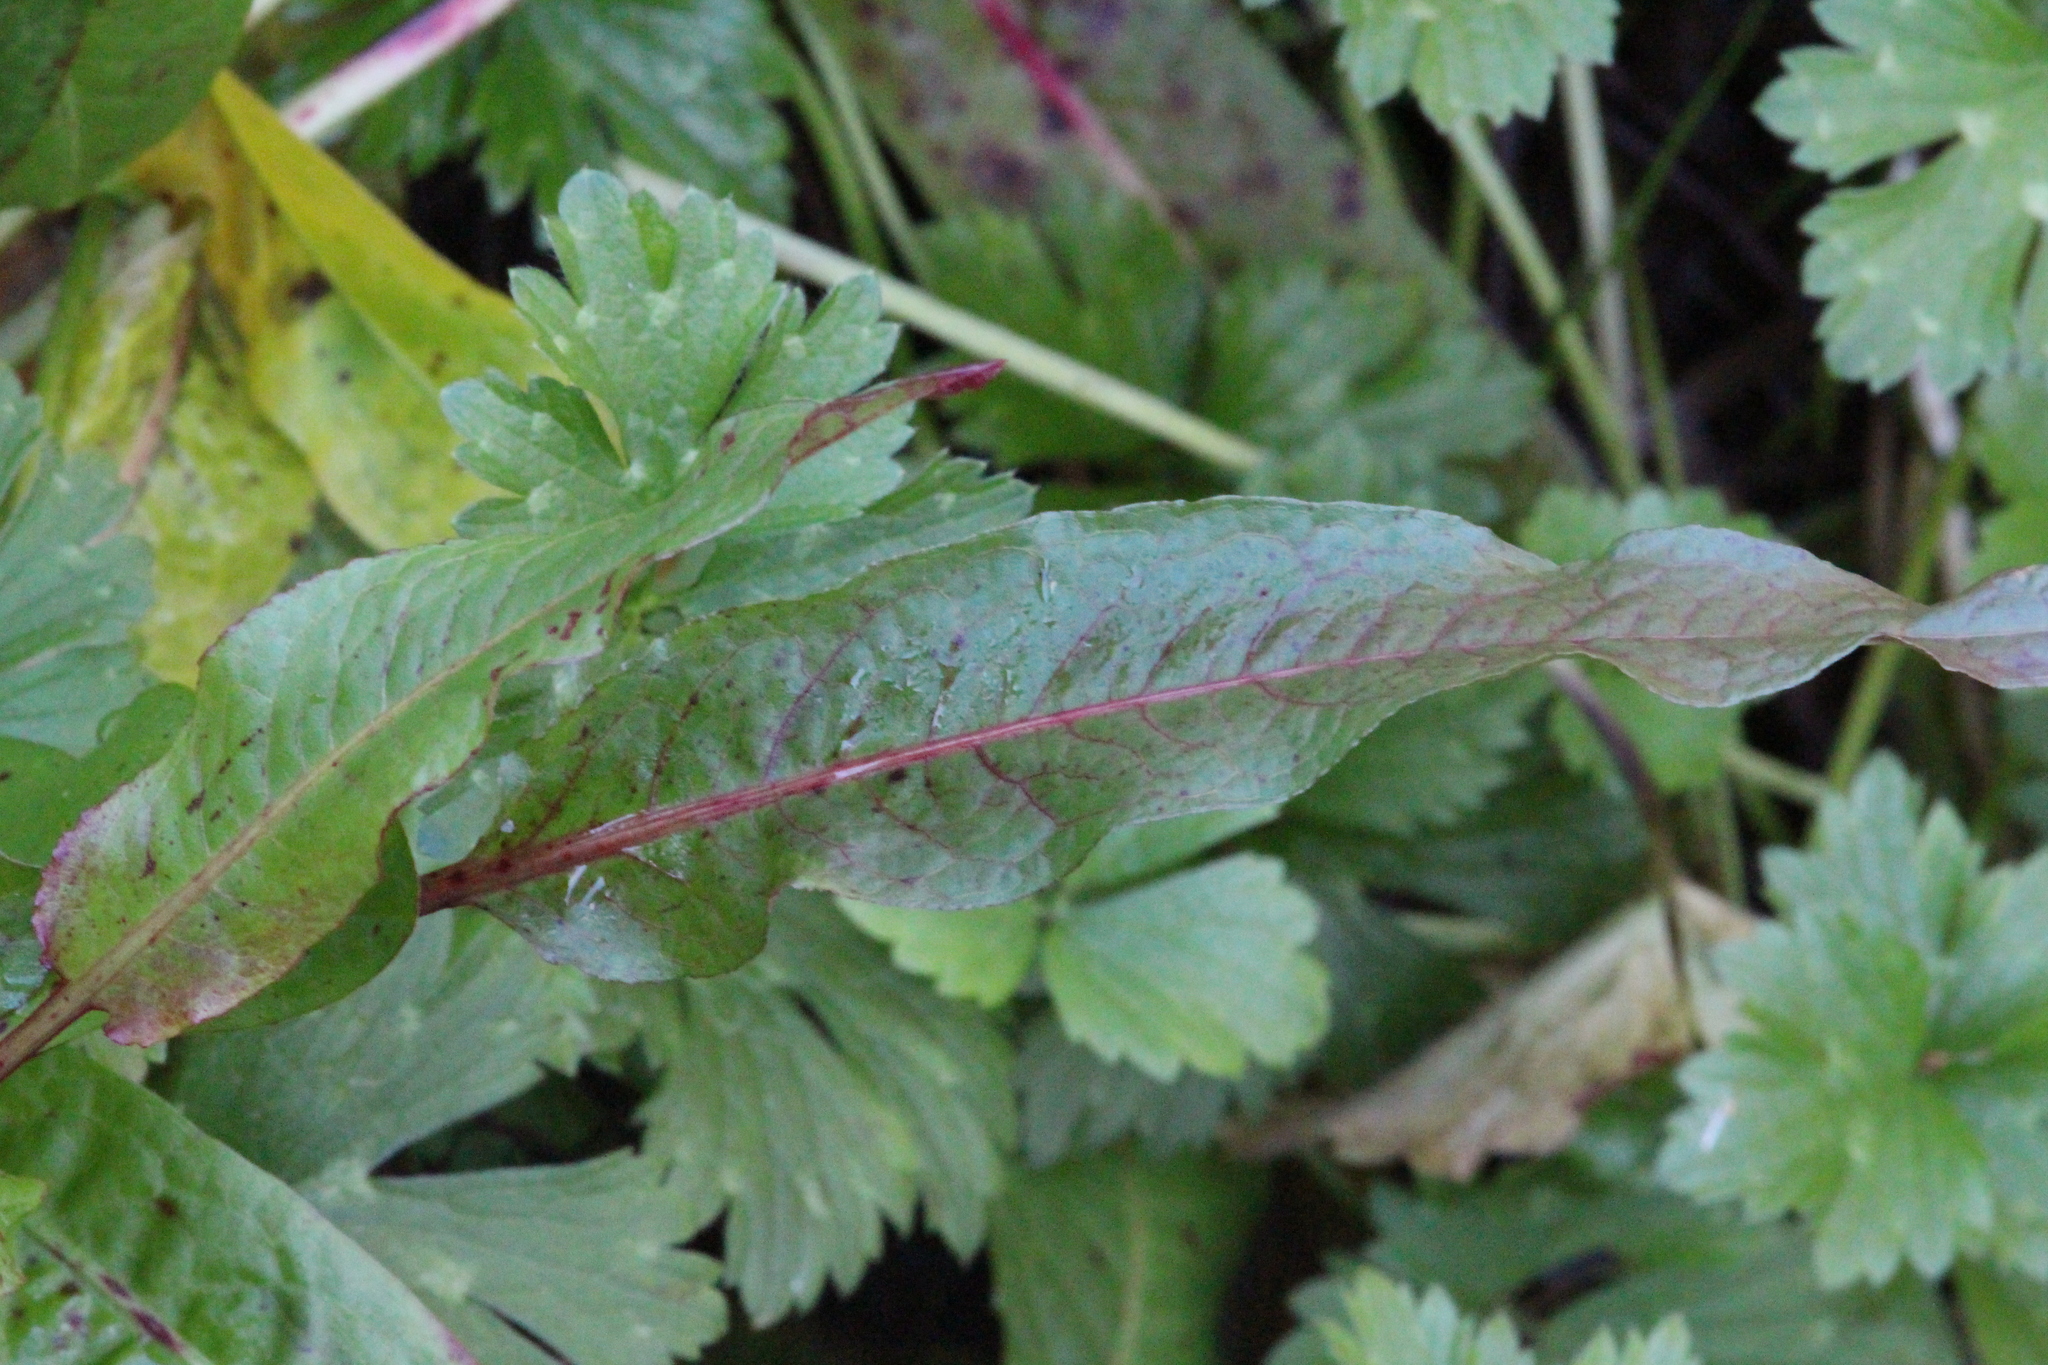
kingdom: Plantae
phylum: Tracheophyta
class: Magnoliopsida
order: Caryophyllales
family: Polygonaceae
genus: Rumex
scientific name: Rumex crispus
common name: Curled dock
